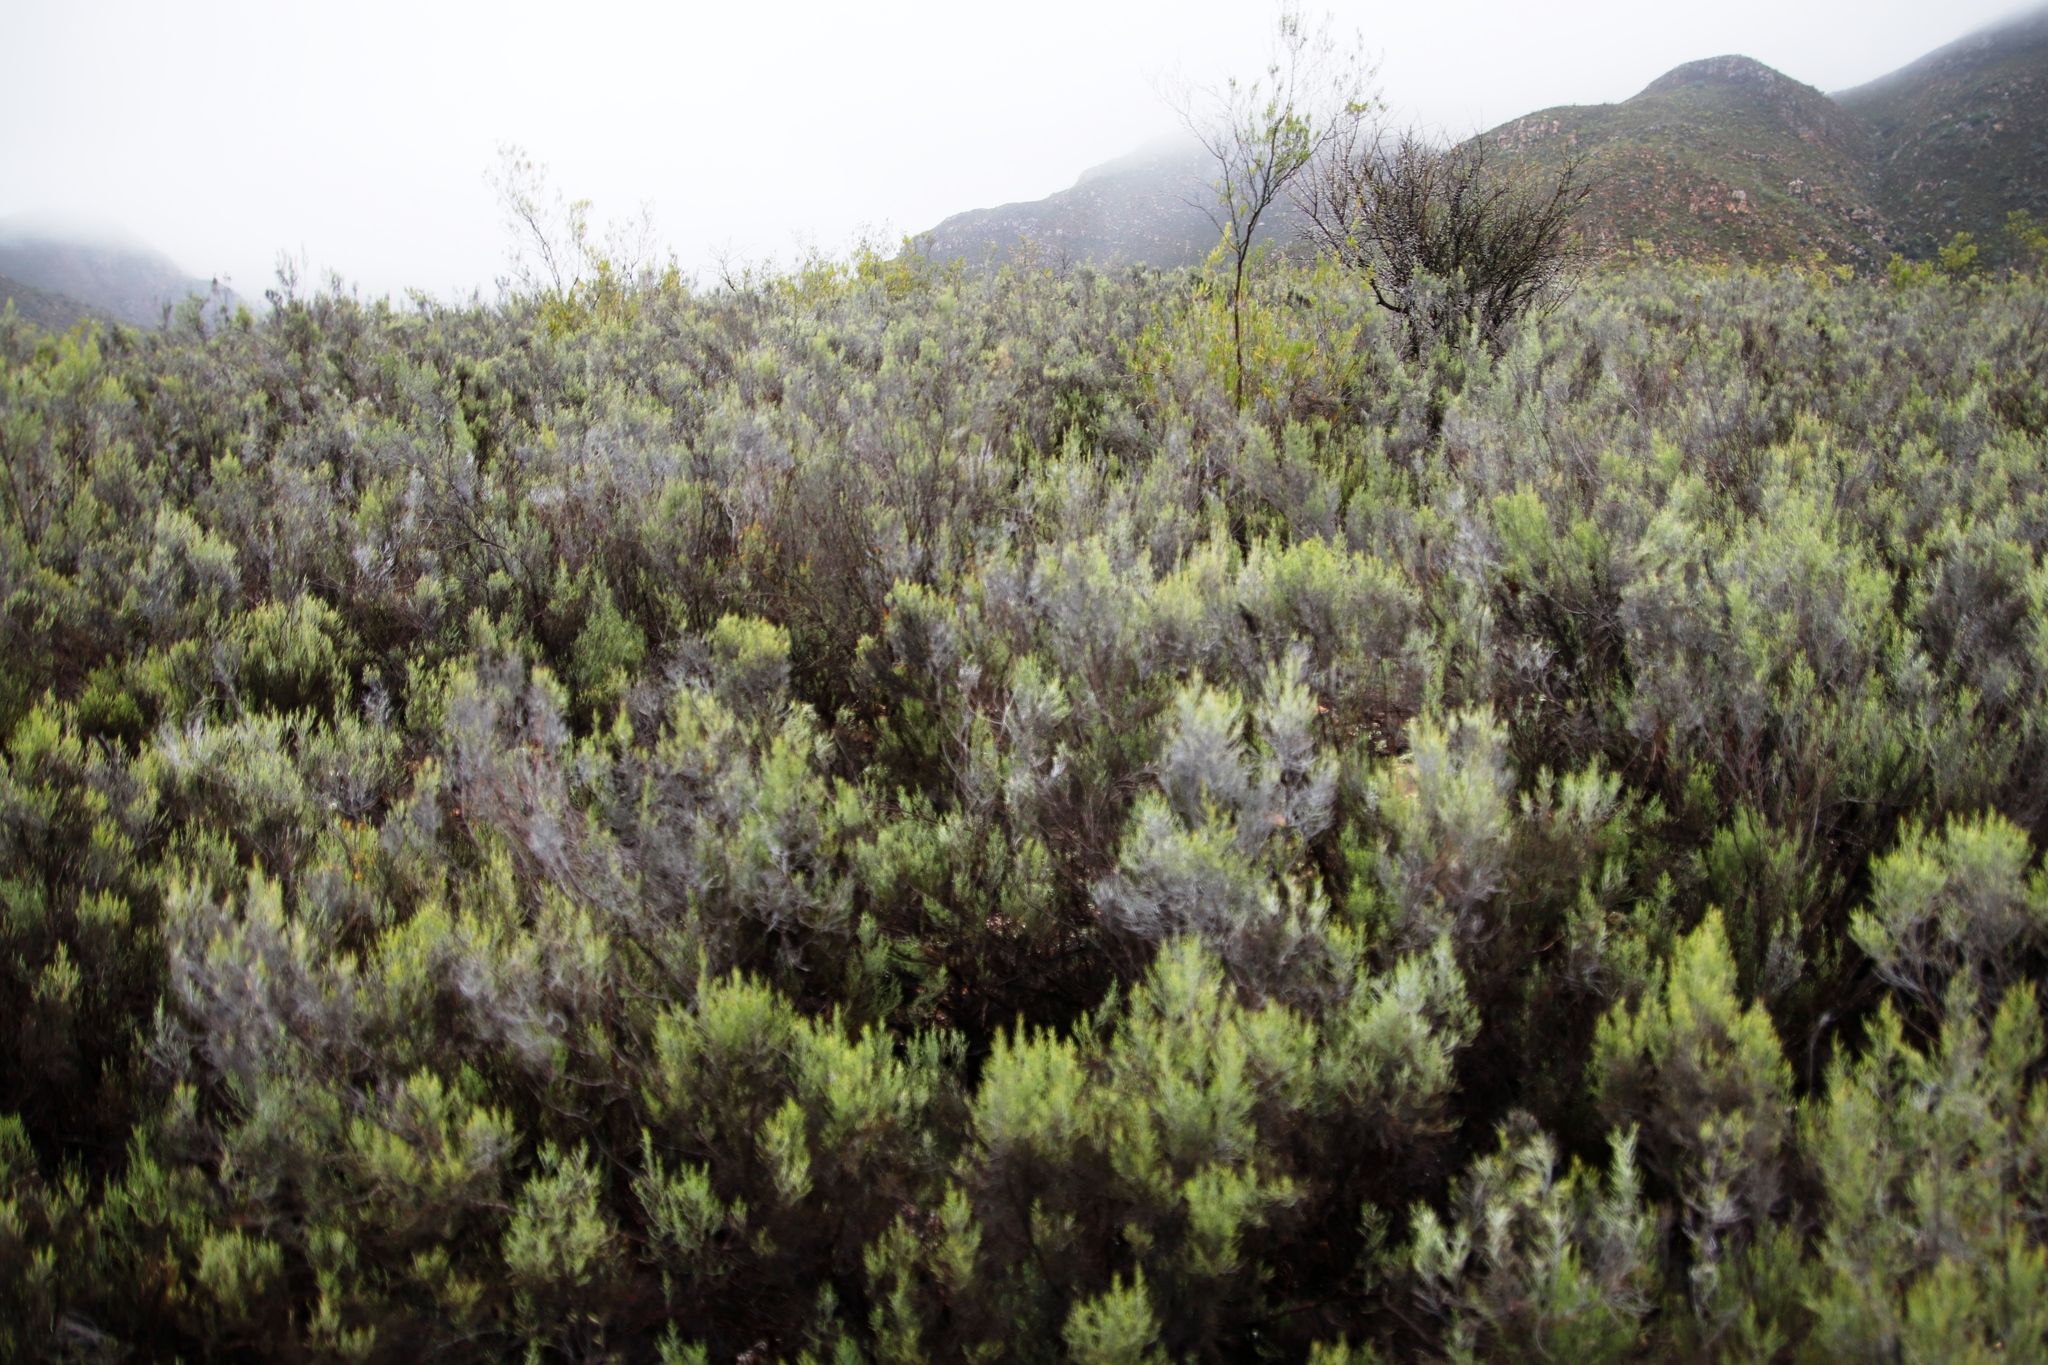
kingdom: Plantae
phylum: Tracheophyta
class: Magnoliopsida
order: Asterales
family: Asteraceae
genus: Dicerothamnus
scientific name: Dicerothamnus rhinocerotis
